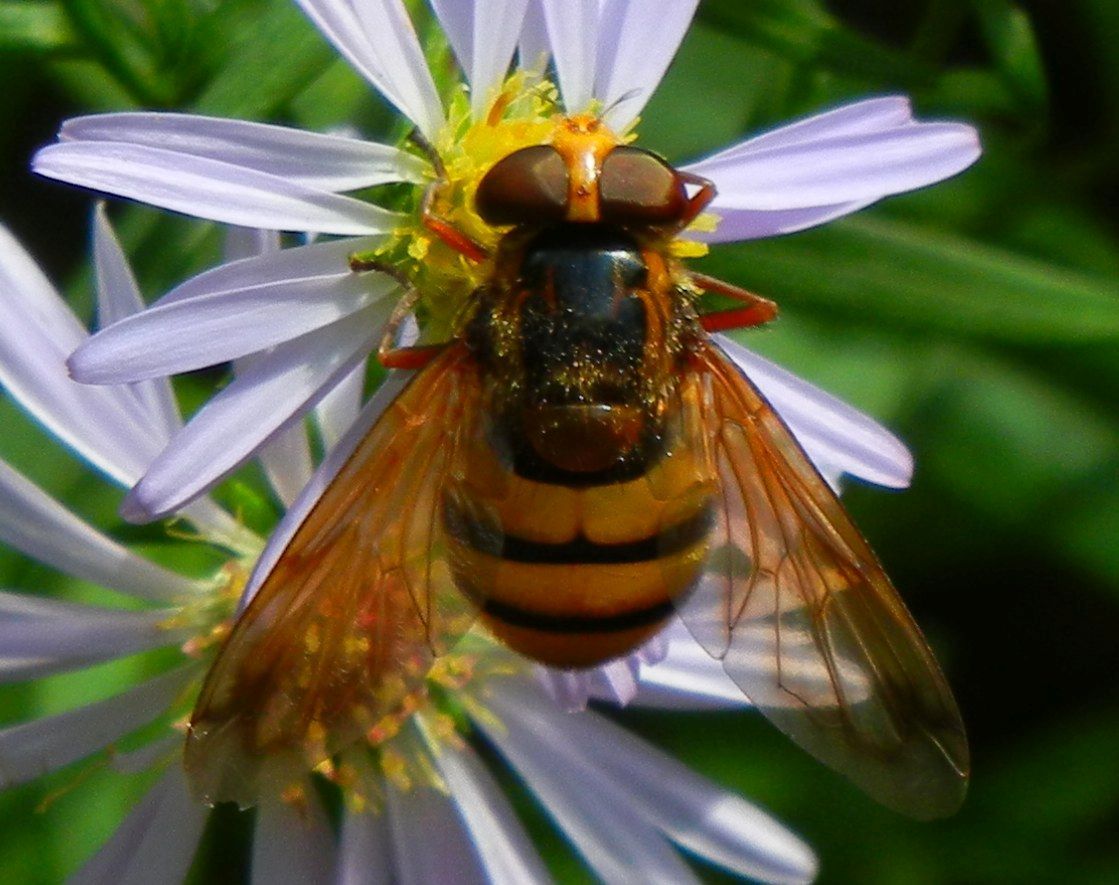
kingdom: Animalia
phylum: Arthropoda
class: Insecta
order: Diptera
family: Syrphidae
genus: Volucella
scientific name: Volucella inanis
